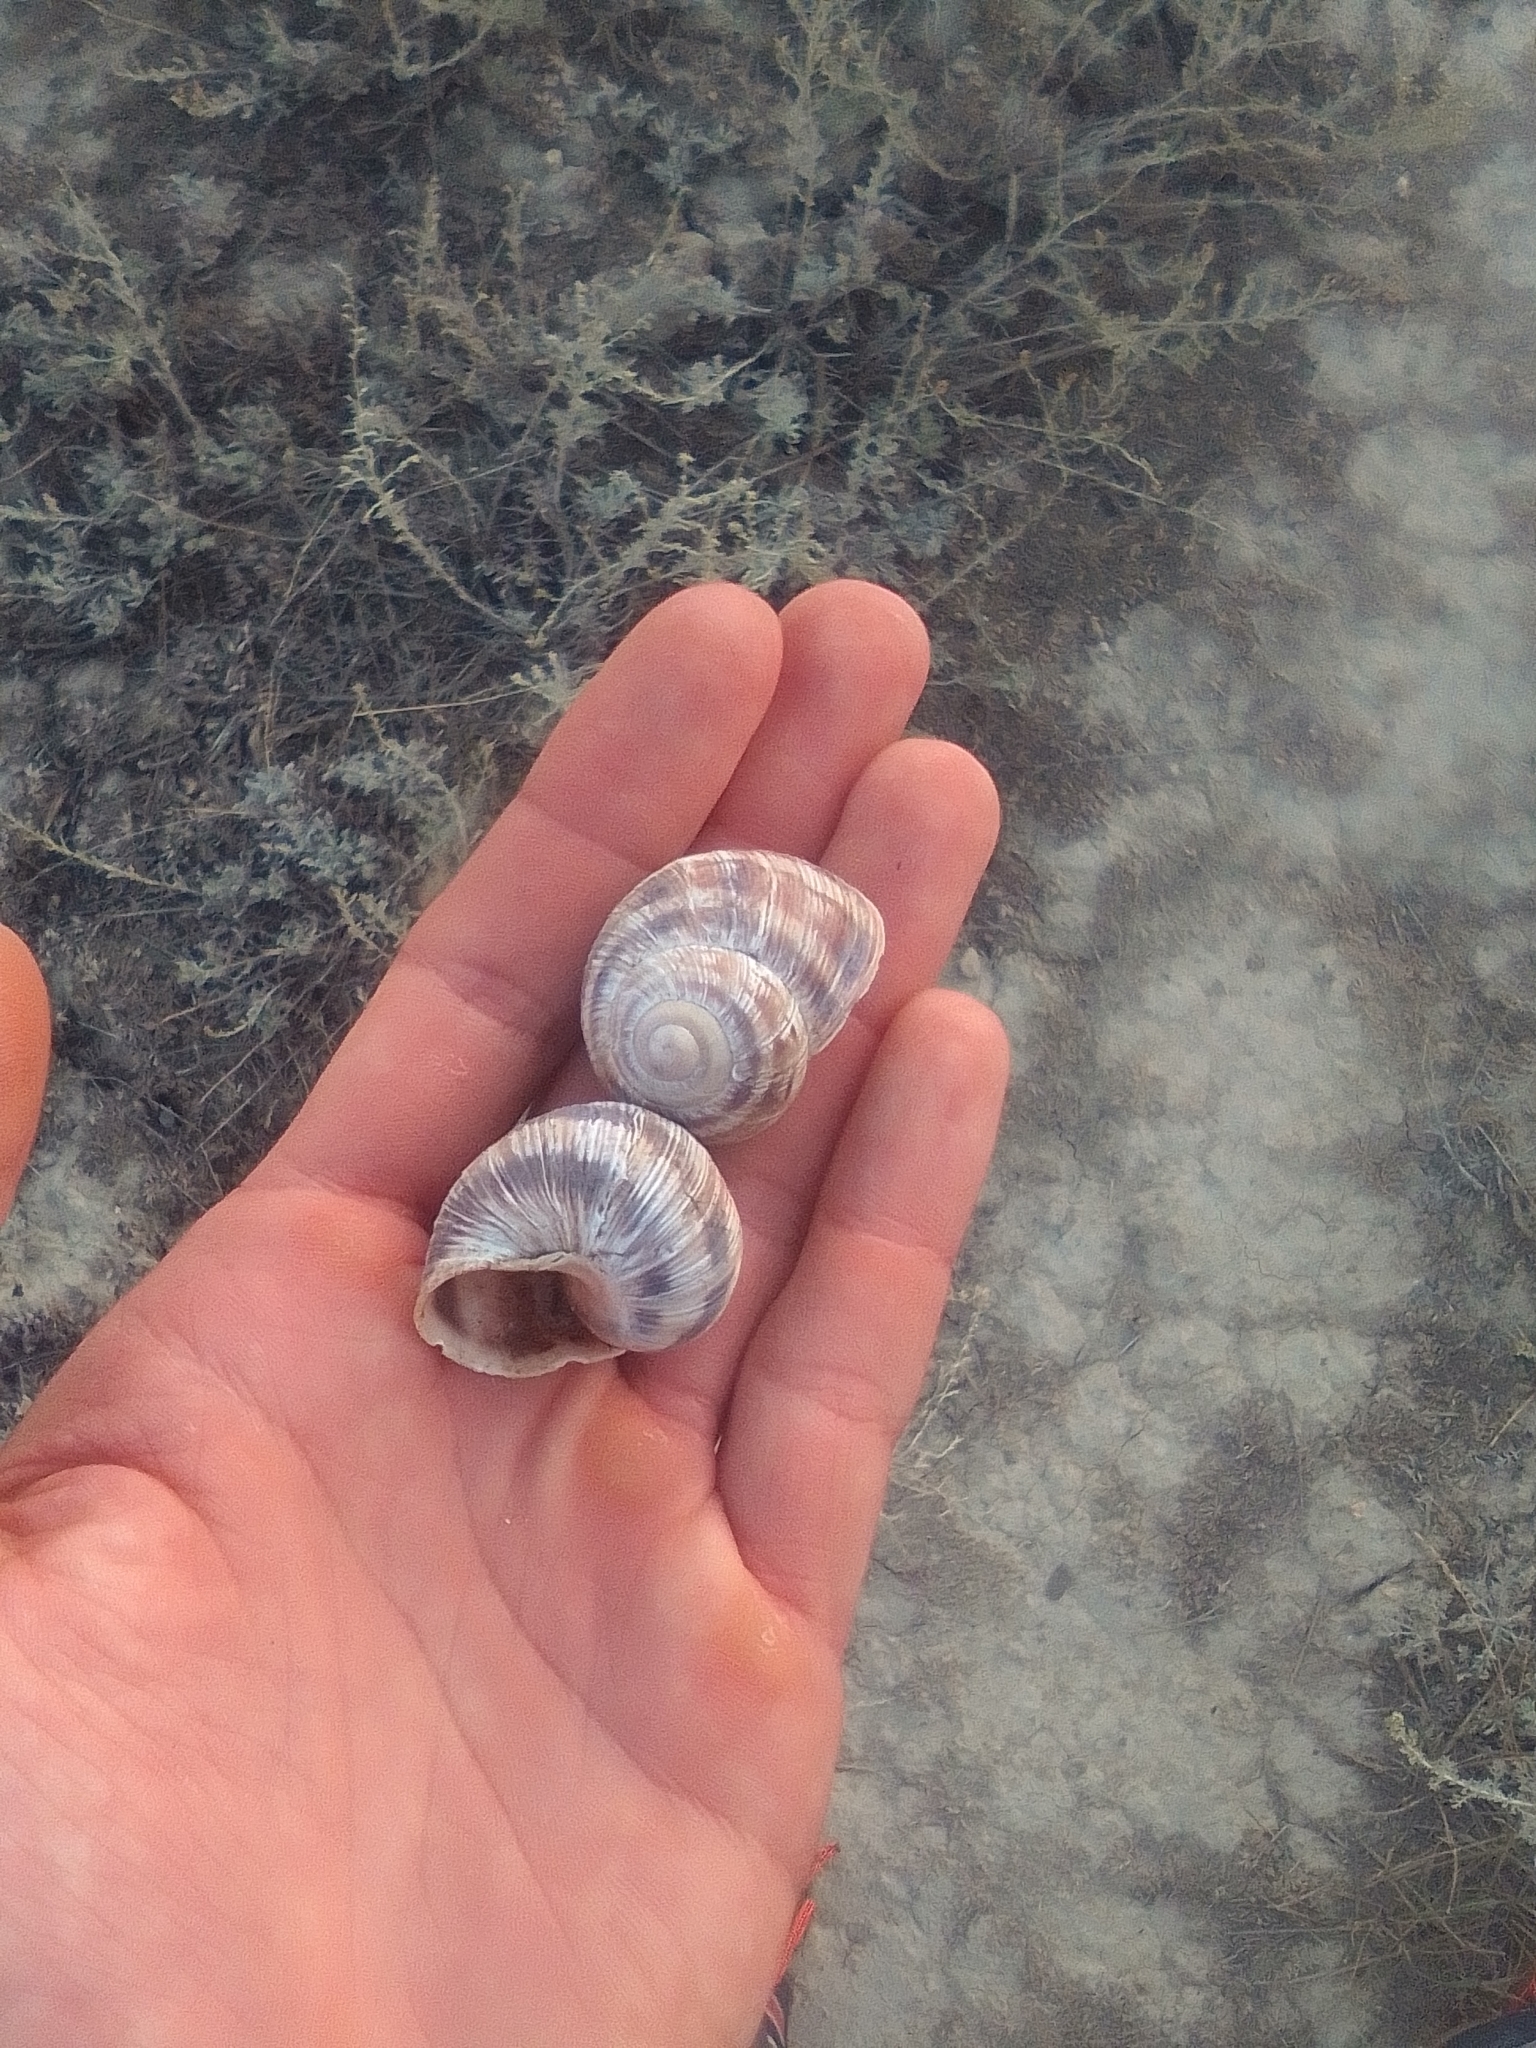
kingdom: Animalia
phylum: Mollusca
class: Gastropoda
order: Stylommatophora
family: Helicidae
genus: Helix
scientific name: Helix albescens
